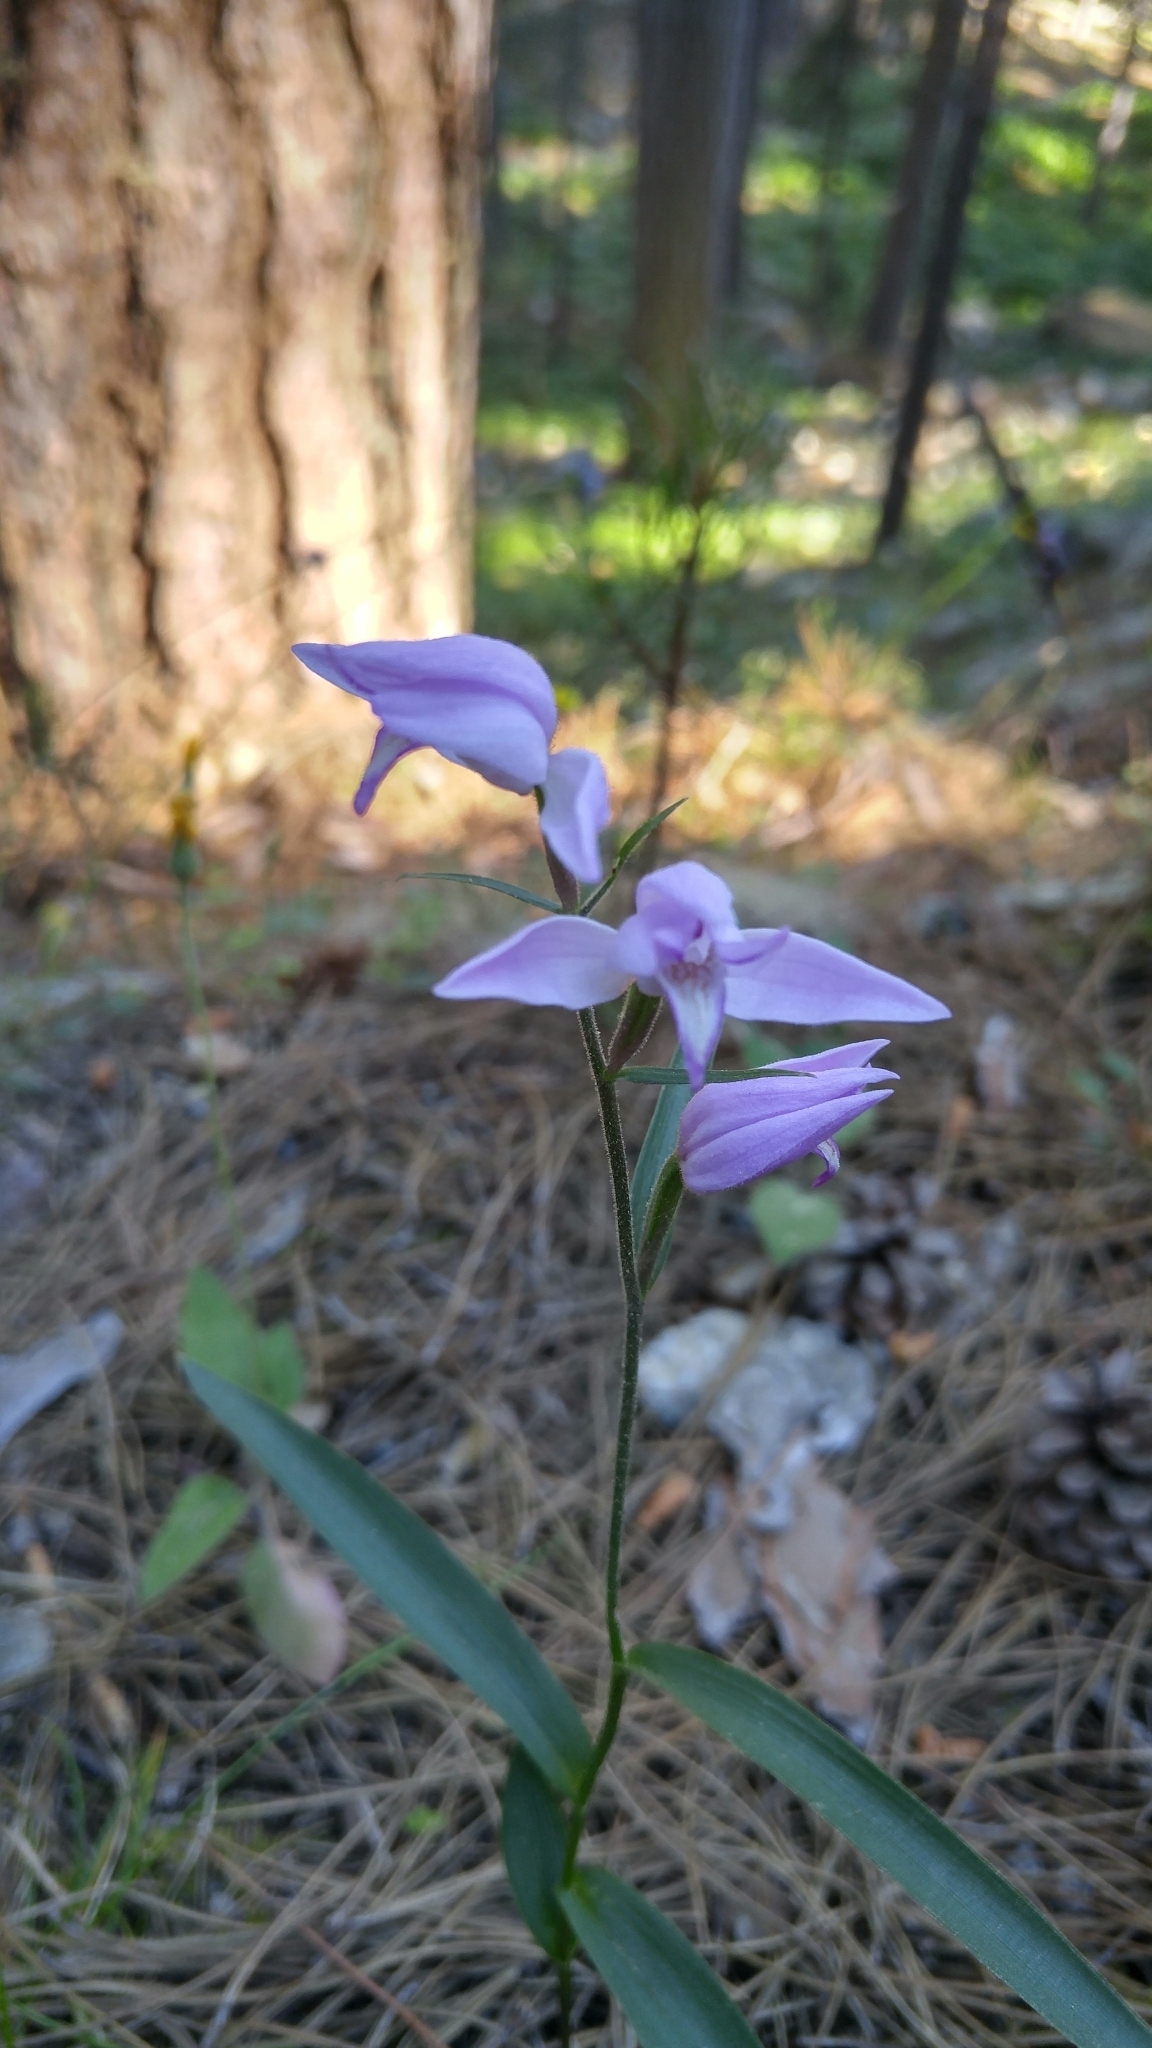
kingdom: Plantae
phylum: Tracheophyta
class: Liliopsida
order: Asparagales
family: Orchidaceae
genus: Cephalanthera
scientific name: Cephalanthera rubra
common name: Red helleborine
